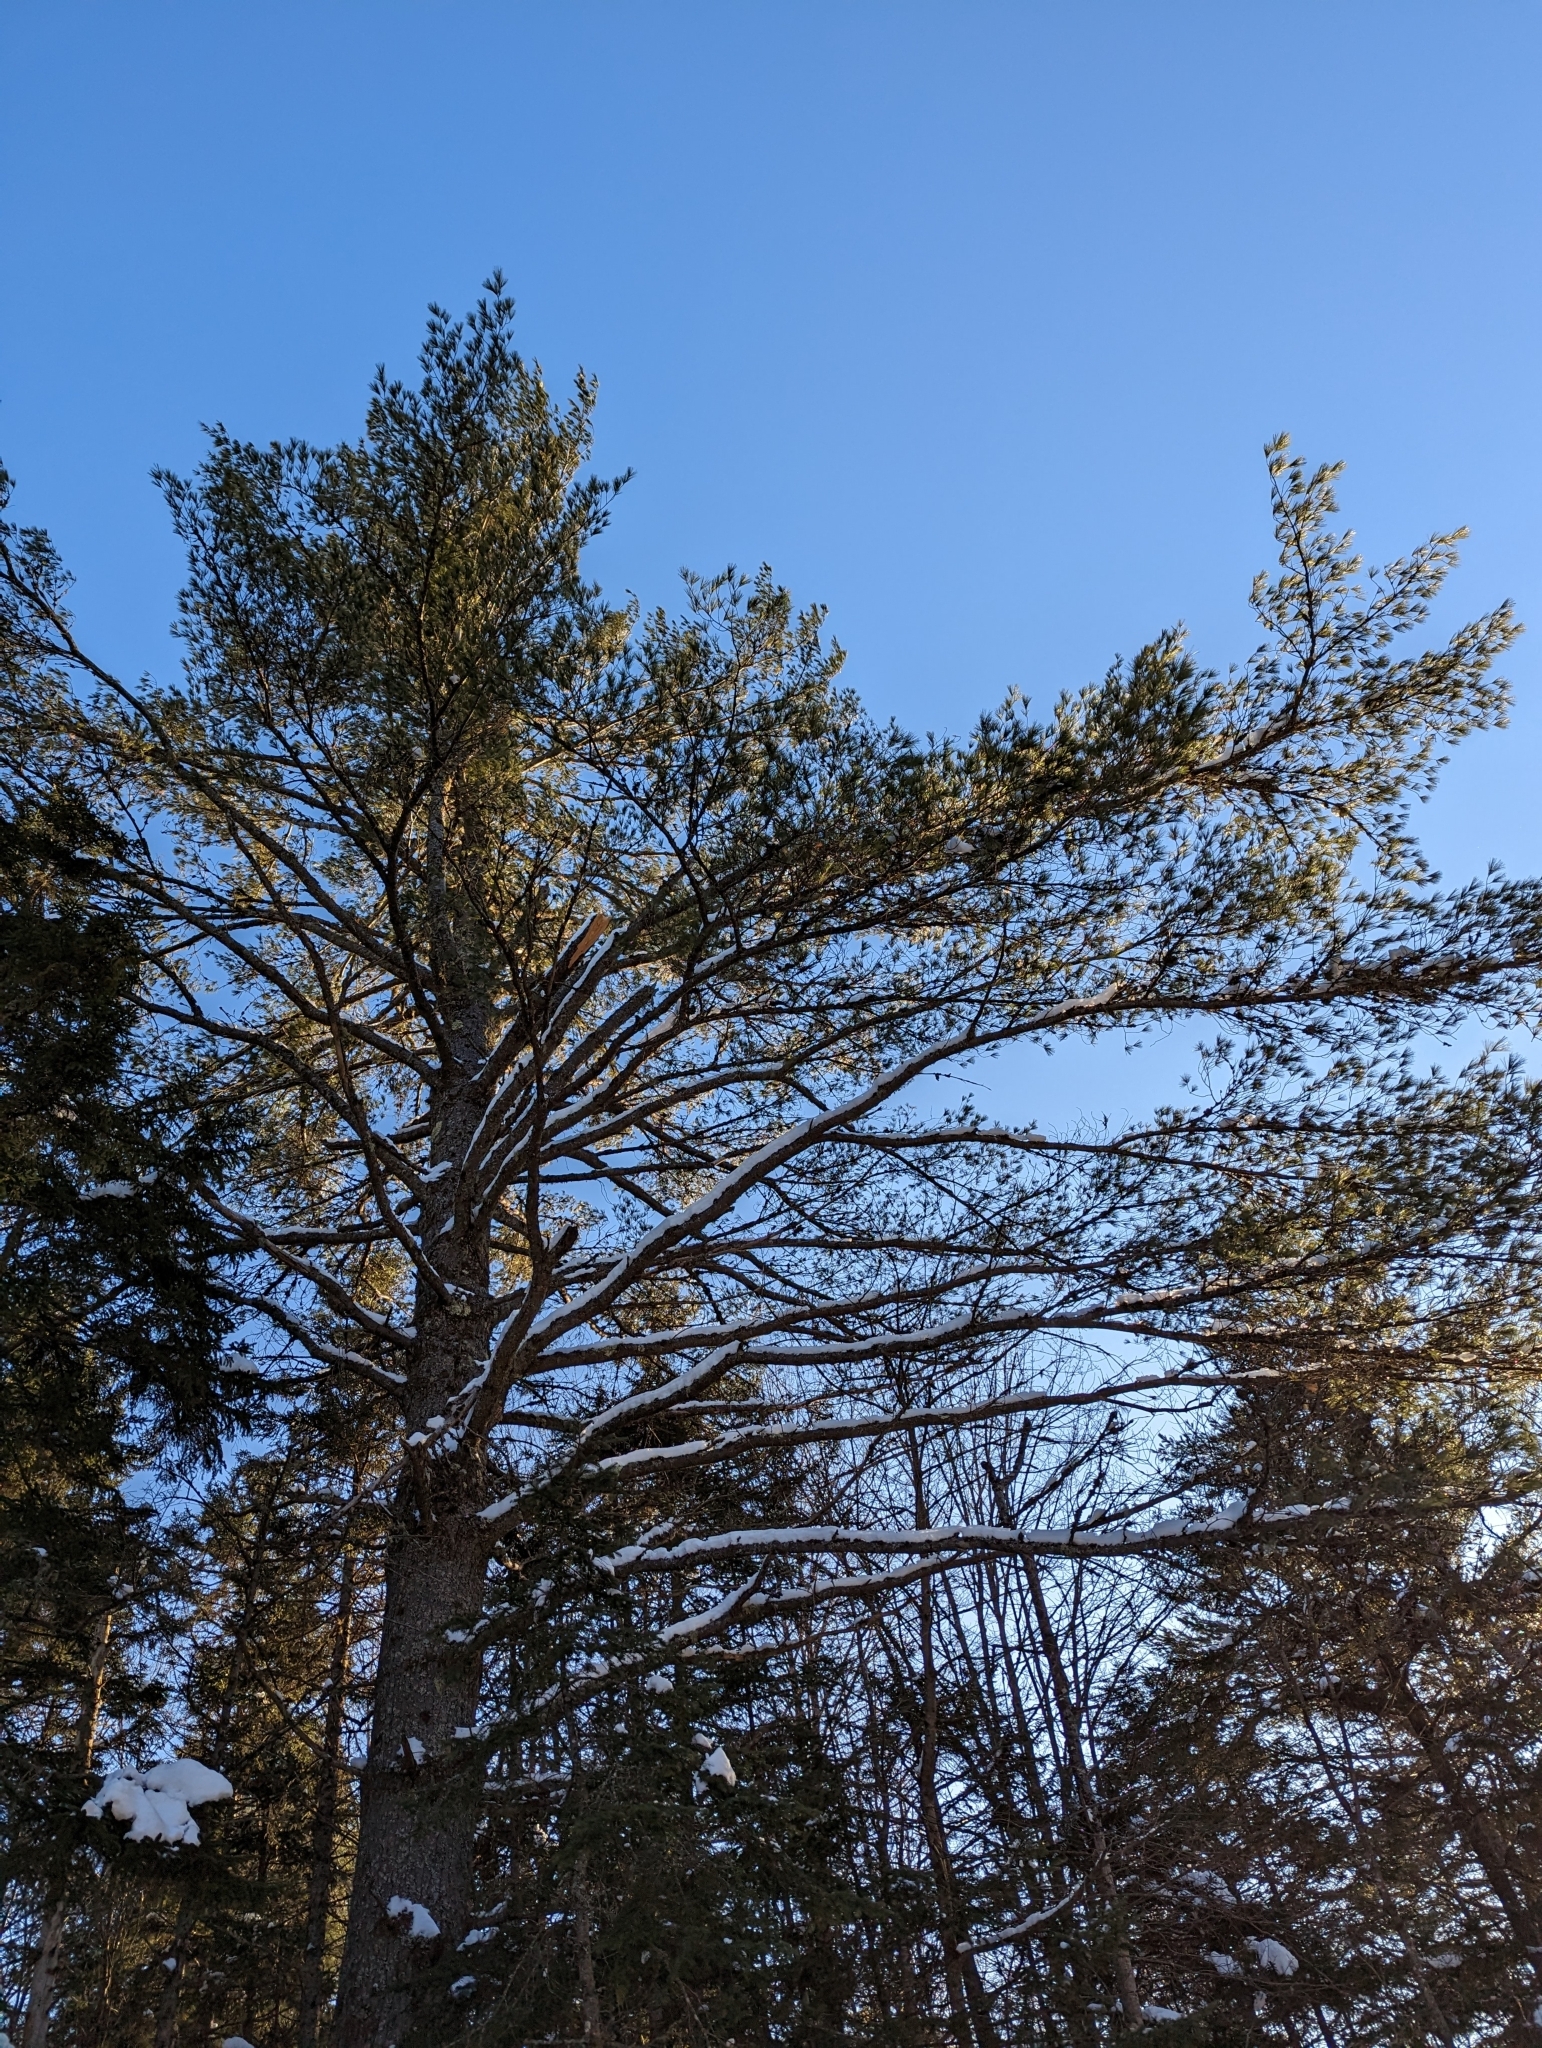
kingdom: Plantae
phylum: Tracheophyta
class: Pinopsida
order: Pinales
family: Pinaceae
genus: Pinus
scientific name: Pinus strobus
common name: Weymouth pine
